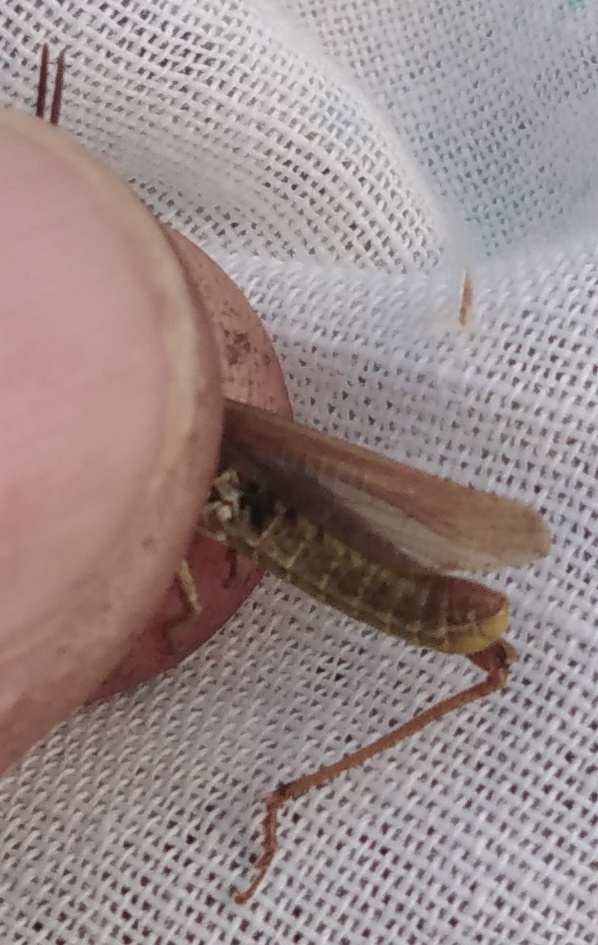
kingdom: Animalia
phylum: Arthropoda
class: Insecta
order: Orthoptera
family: Acrididae
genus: Chorthippus
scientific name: Chorthippus apricarius
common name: Upland field grasshopper
